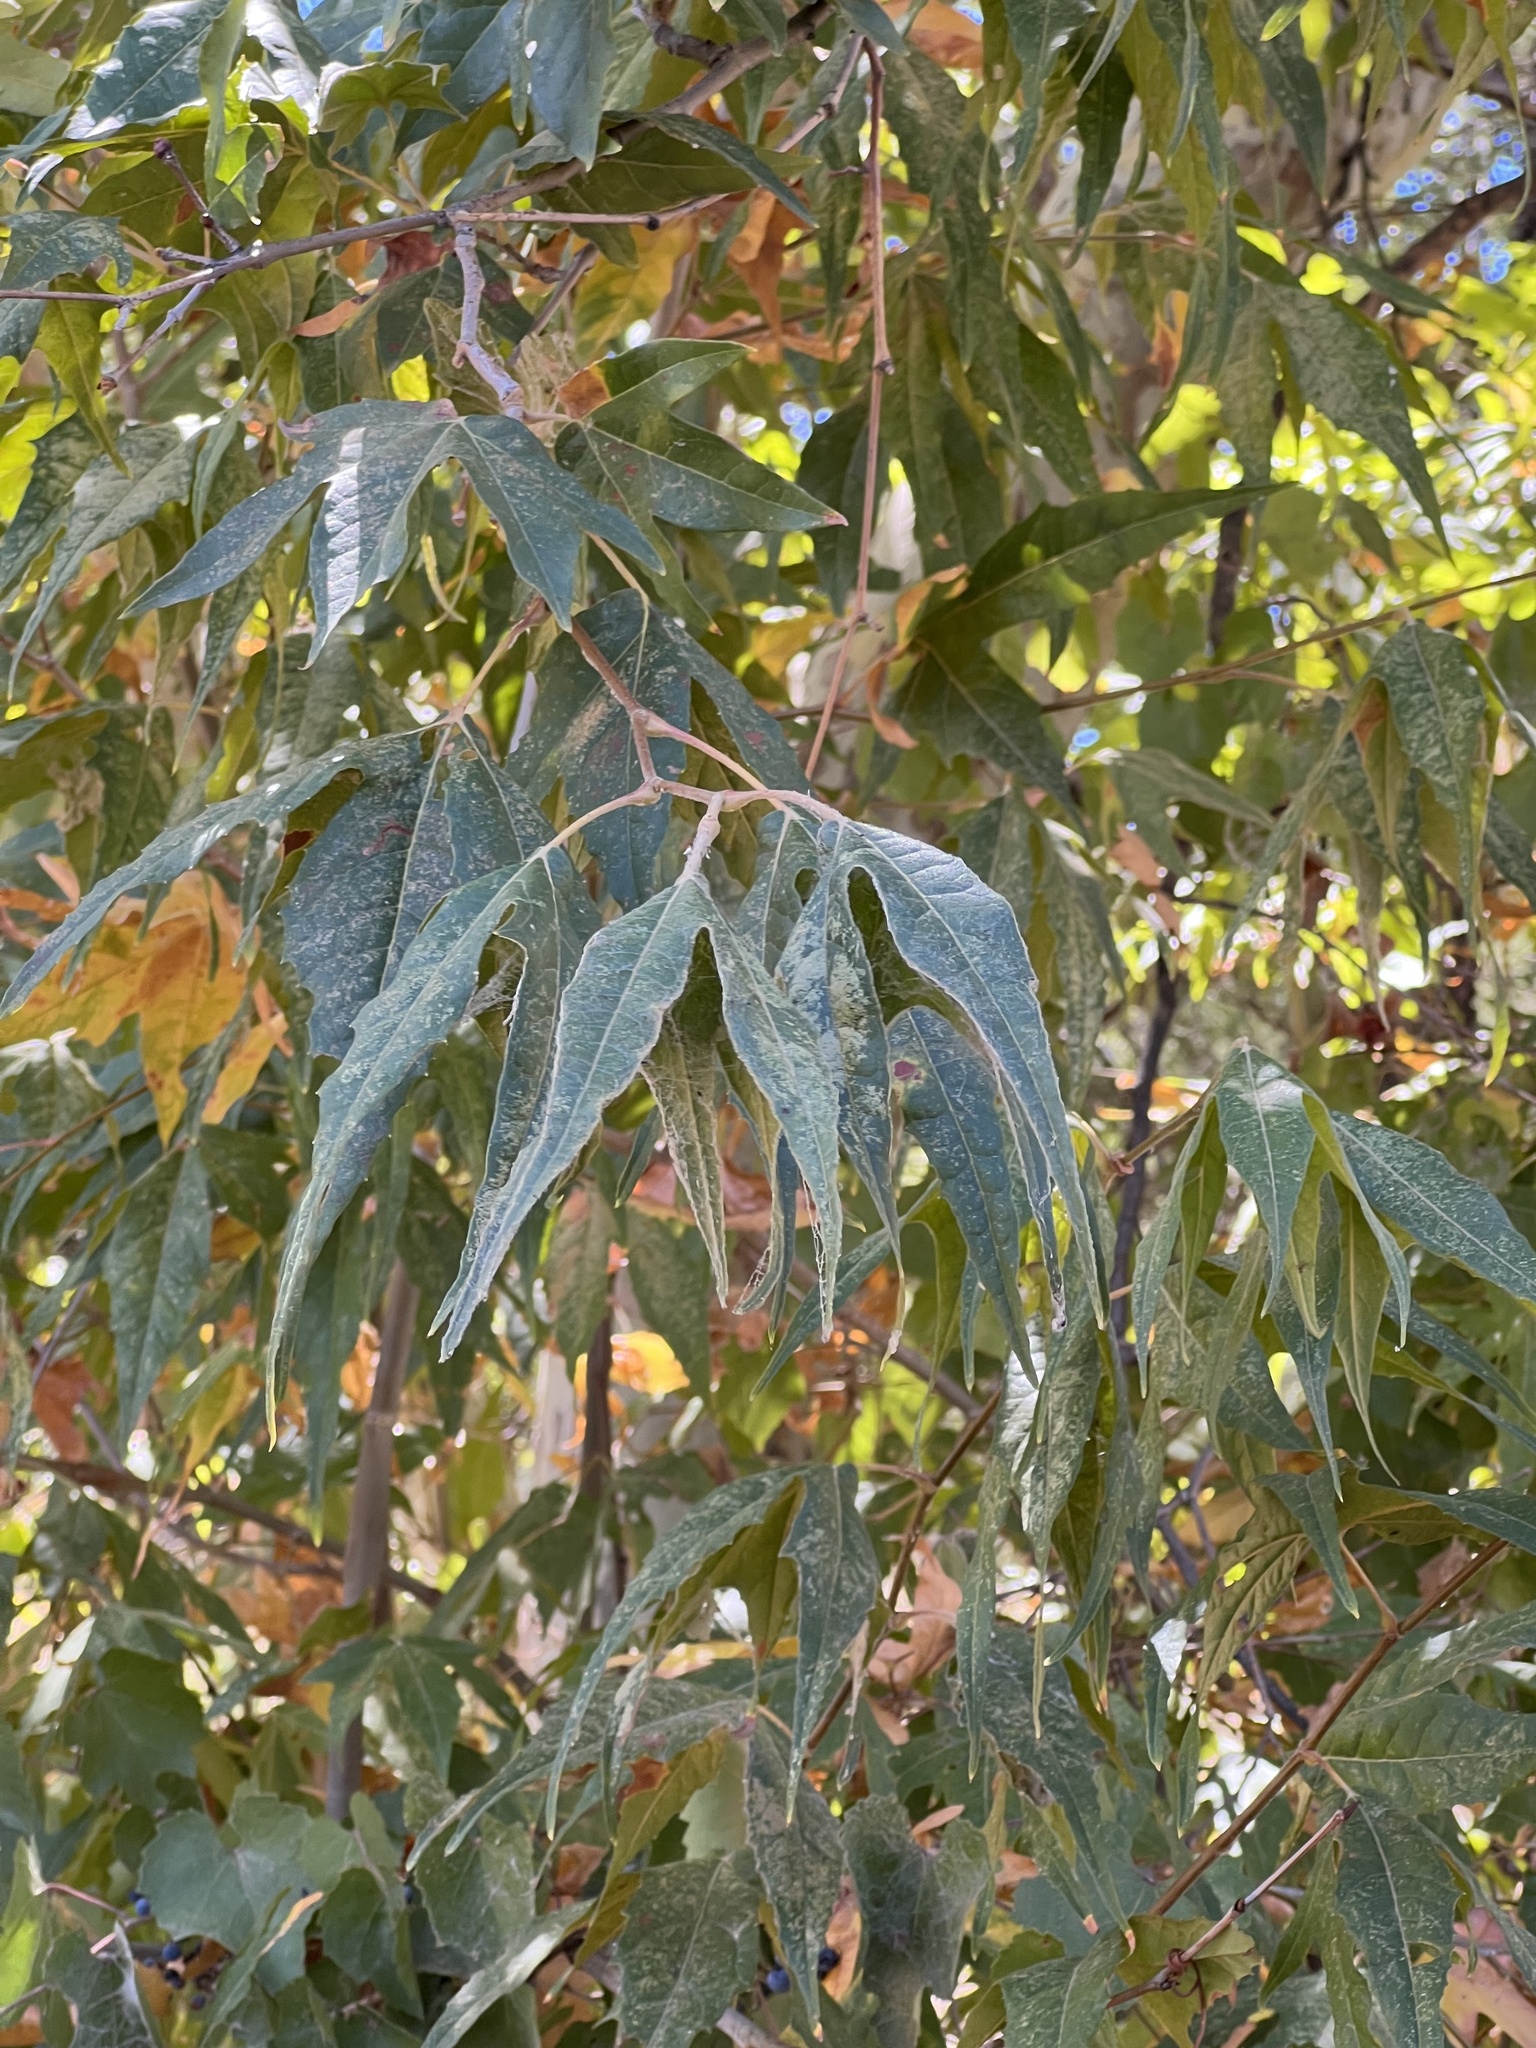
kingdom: Plantae
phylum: Tracheophyta
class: Magnoliopsida
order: Proteales
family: Platanaceae
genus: Platanus
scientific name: Platanus wrightii
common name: Arizona sycamore
